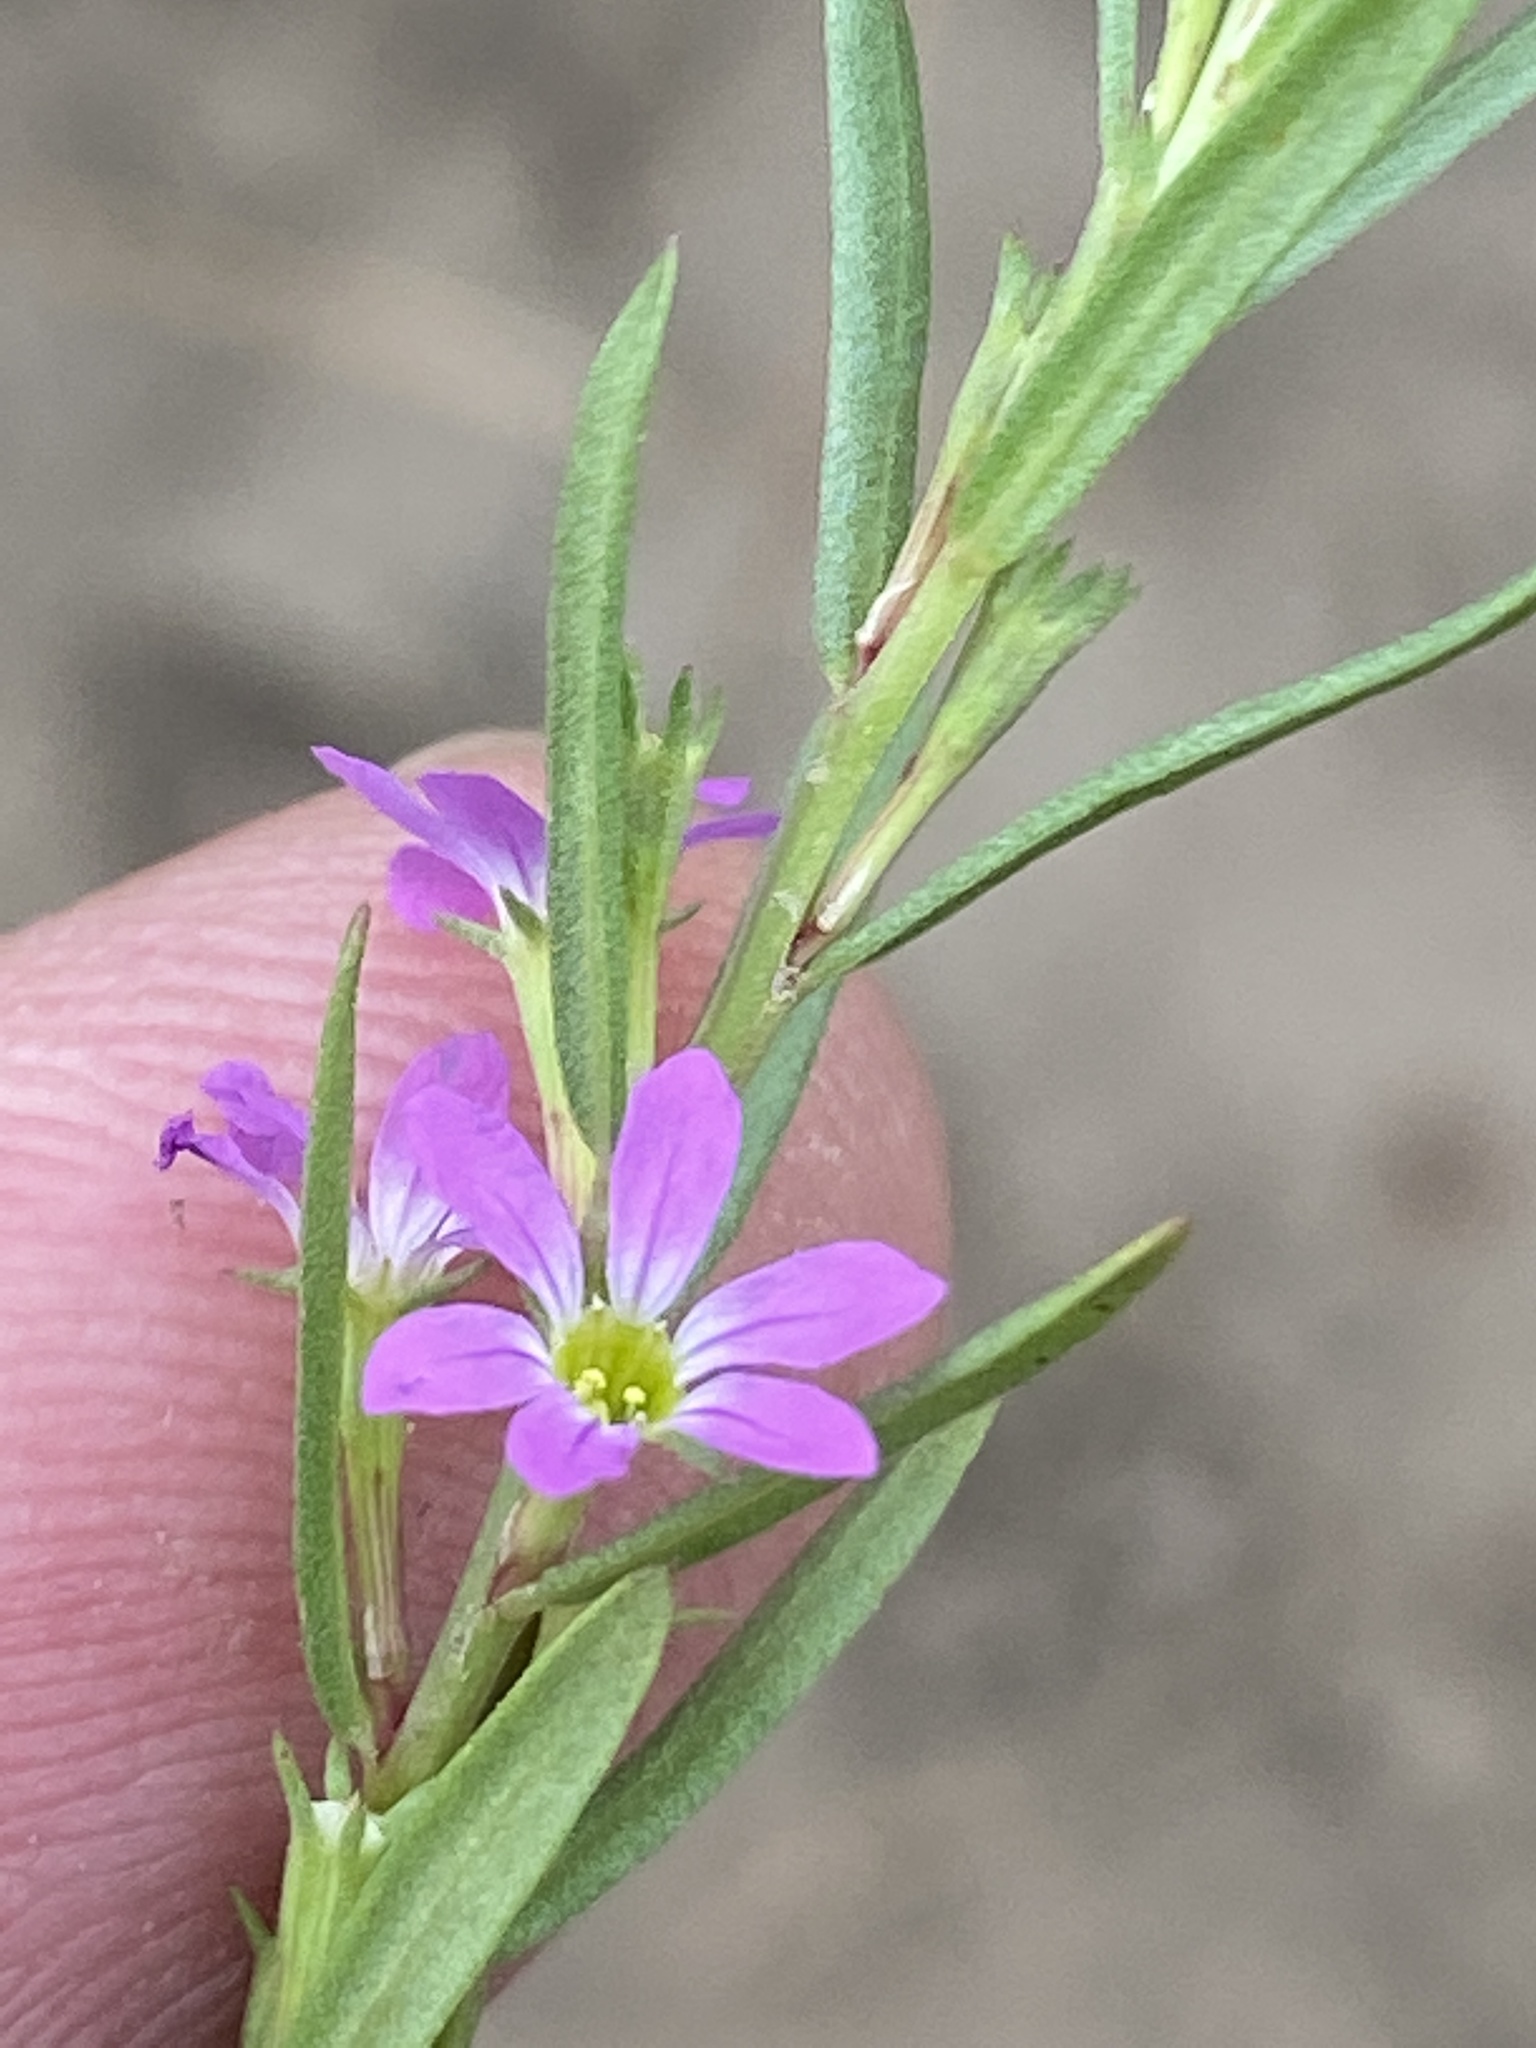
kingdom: Plantae
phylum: Tracheophyta
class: Magnoliopsida
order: Myrtales
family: Lythraceae
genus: Lythrum
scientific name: Lythrum hyssopifolia
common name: Grass-poly
